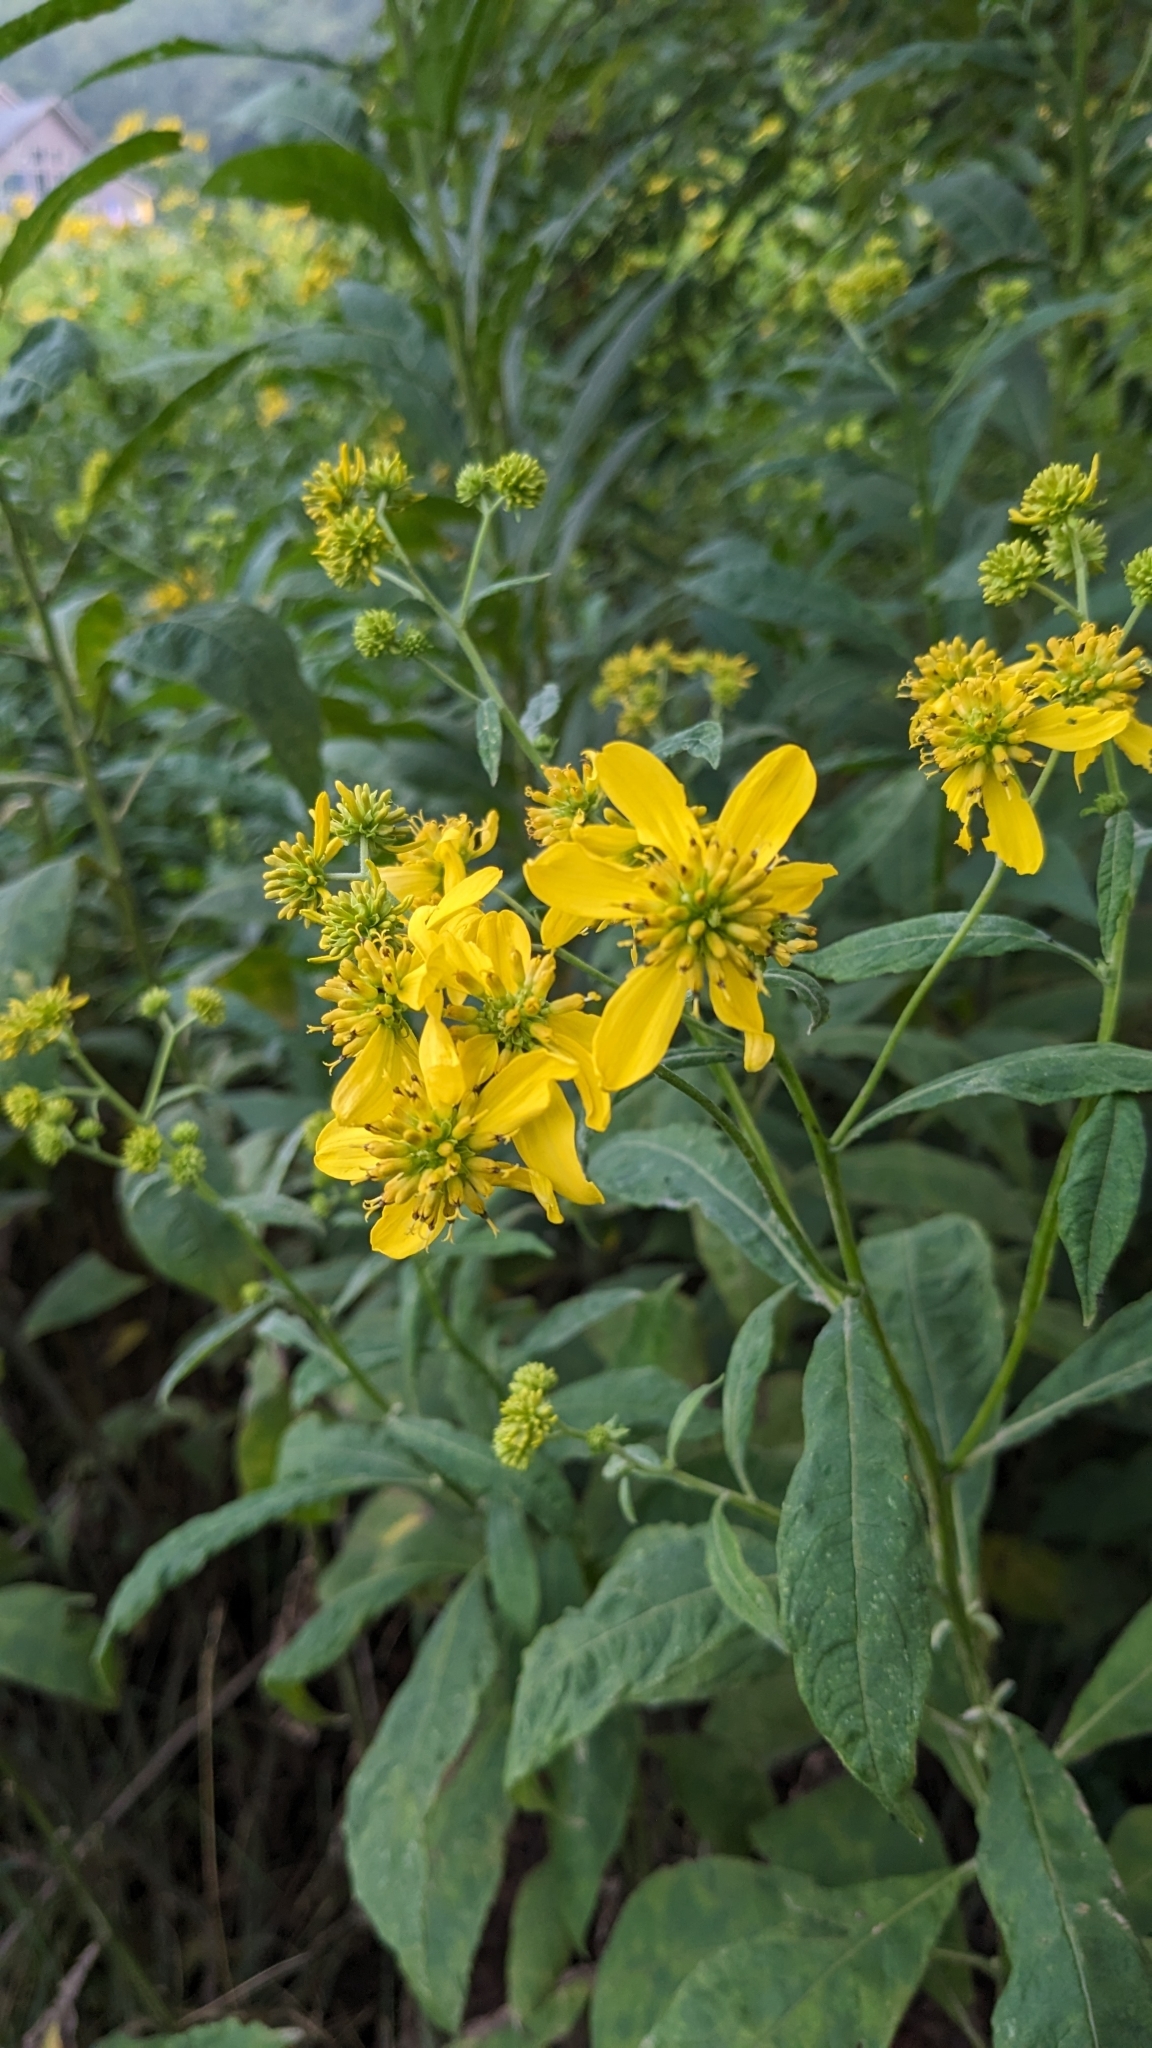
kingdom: Plantae
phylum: Tracheophyta
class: Magnoliopsida
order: Asterales
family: Asteraceae
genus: Verbesina
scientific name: Verbesina alternifolia
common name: Wingstem
